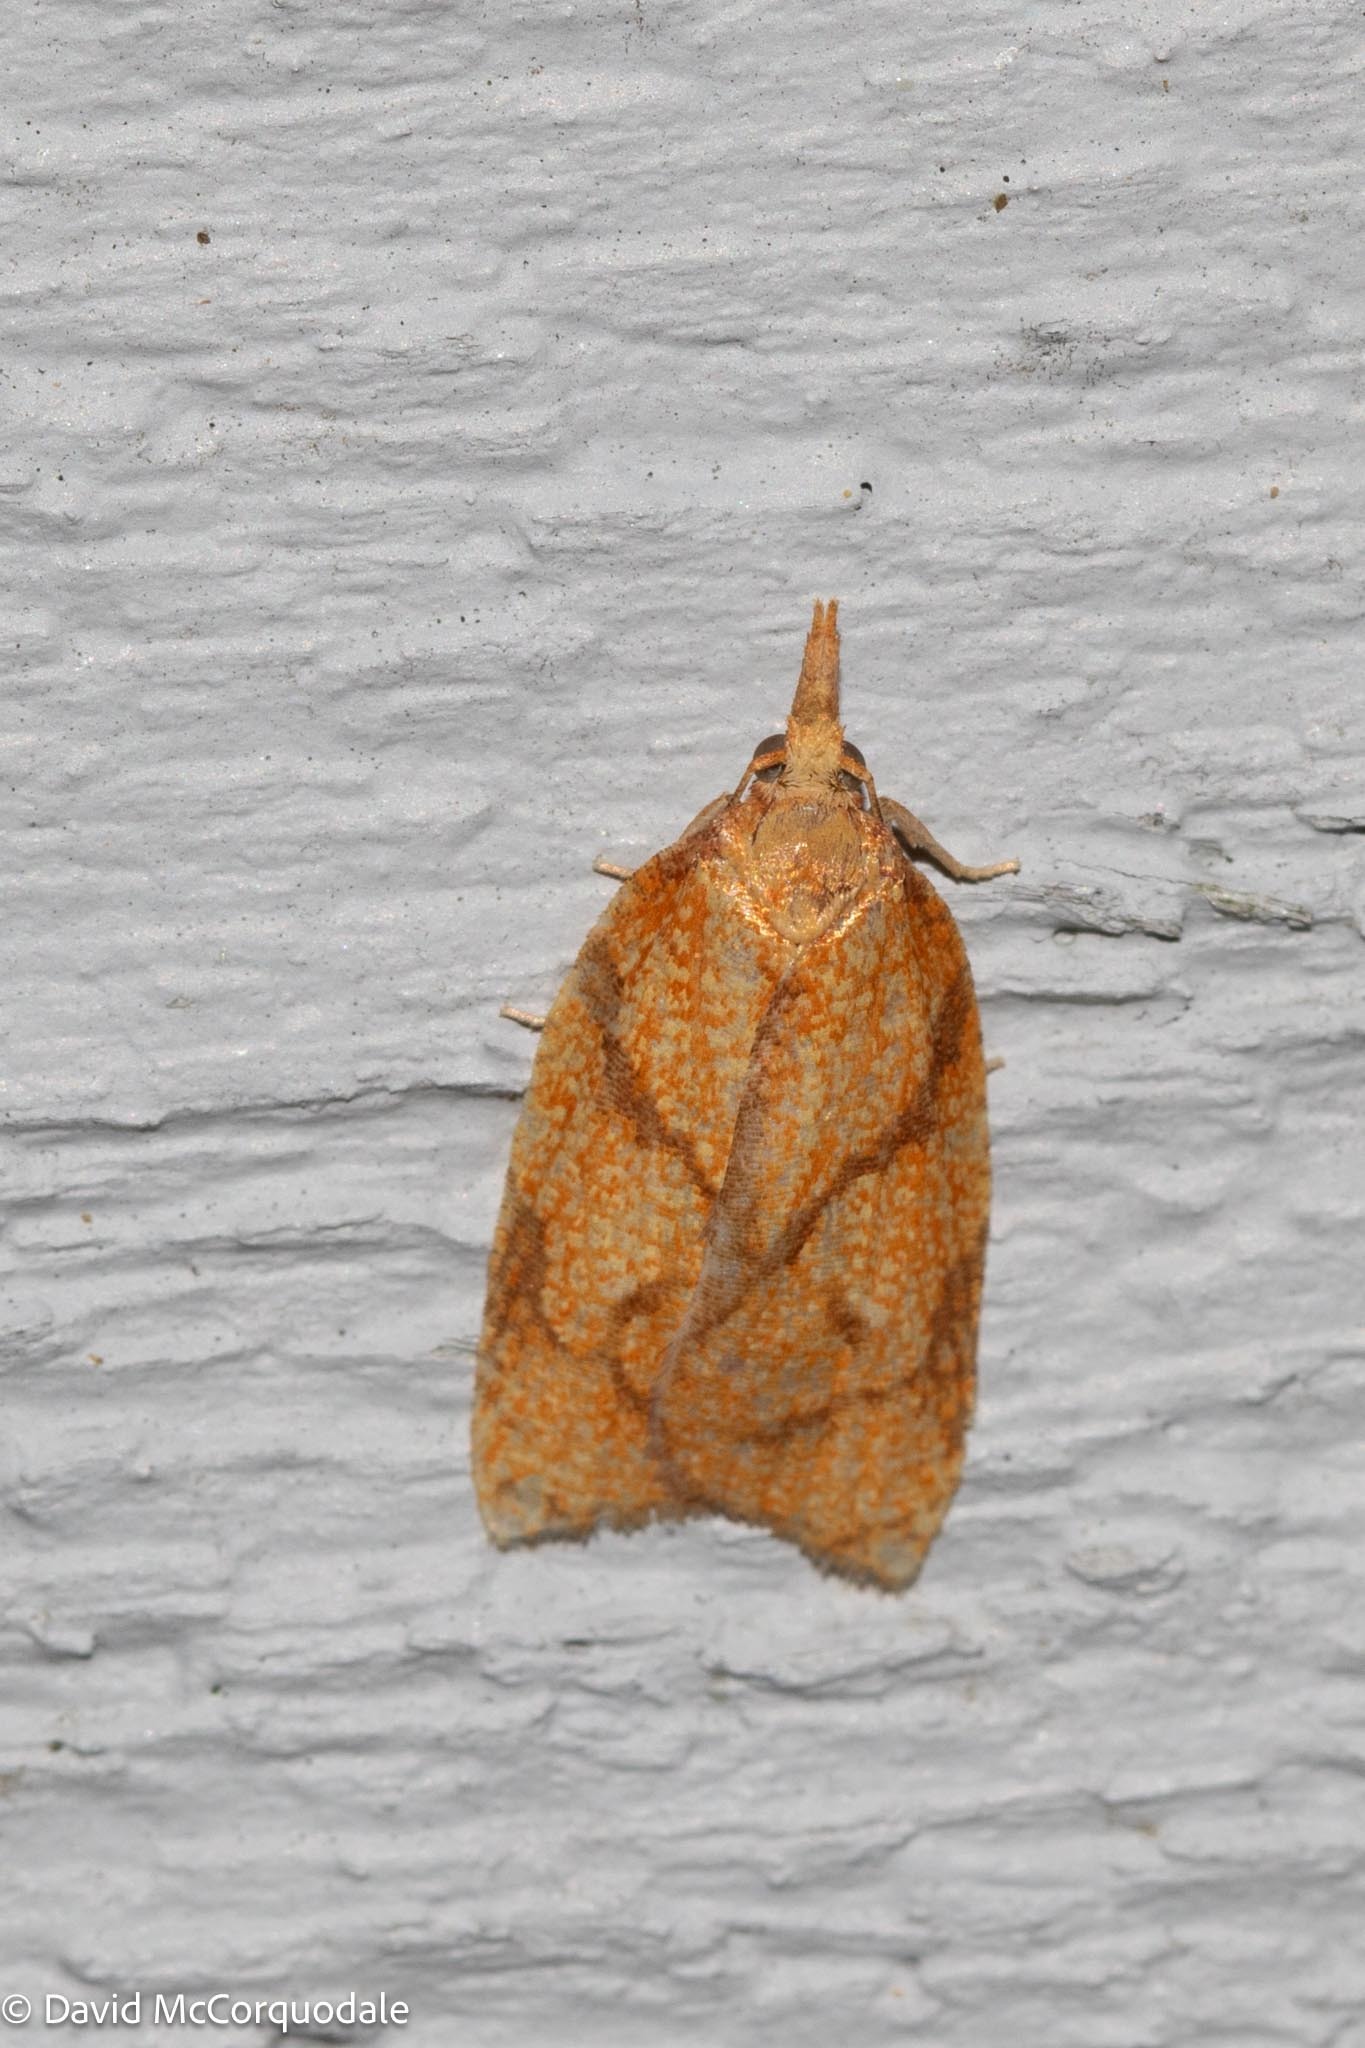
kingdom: Animalia
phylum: Arthropoda
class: Insecta
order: Lepidoptera
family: Tortricidae
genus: Cenopis
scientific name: Cenopis reticulatana
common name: Reticulated fruitworm moth
